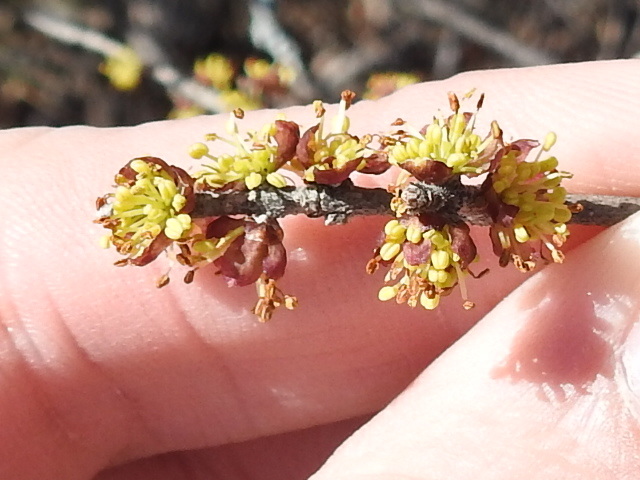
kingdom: Plantae
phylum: Tracheophyta
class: Magnoliopsida
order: Lamiales
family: Oleaceae
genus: Forestiera
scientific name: Forestiera pubescens
